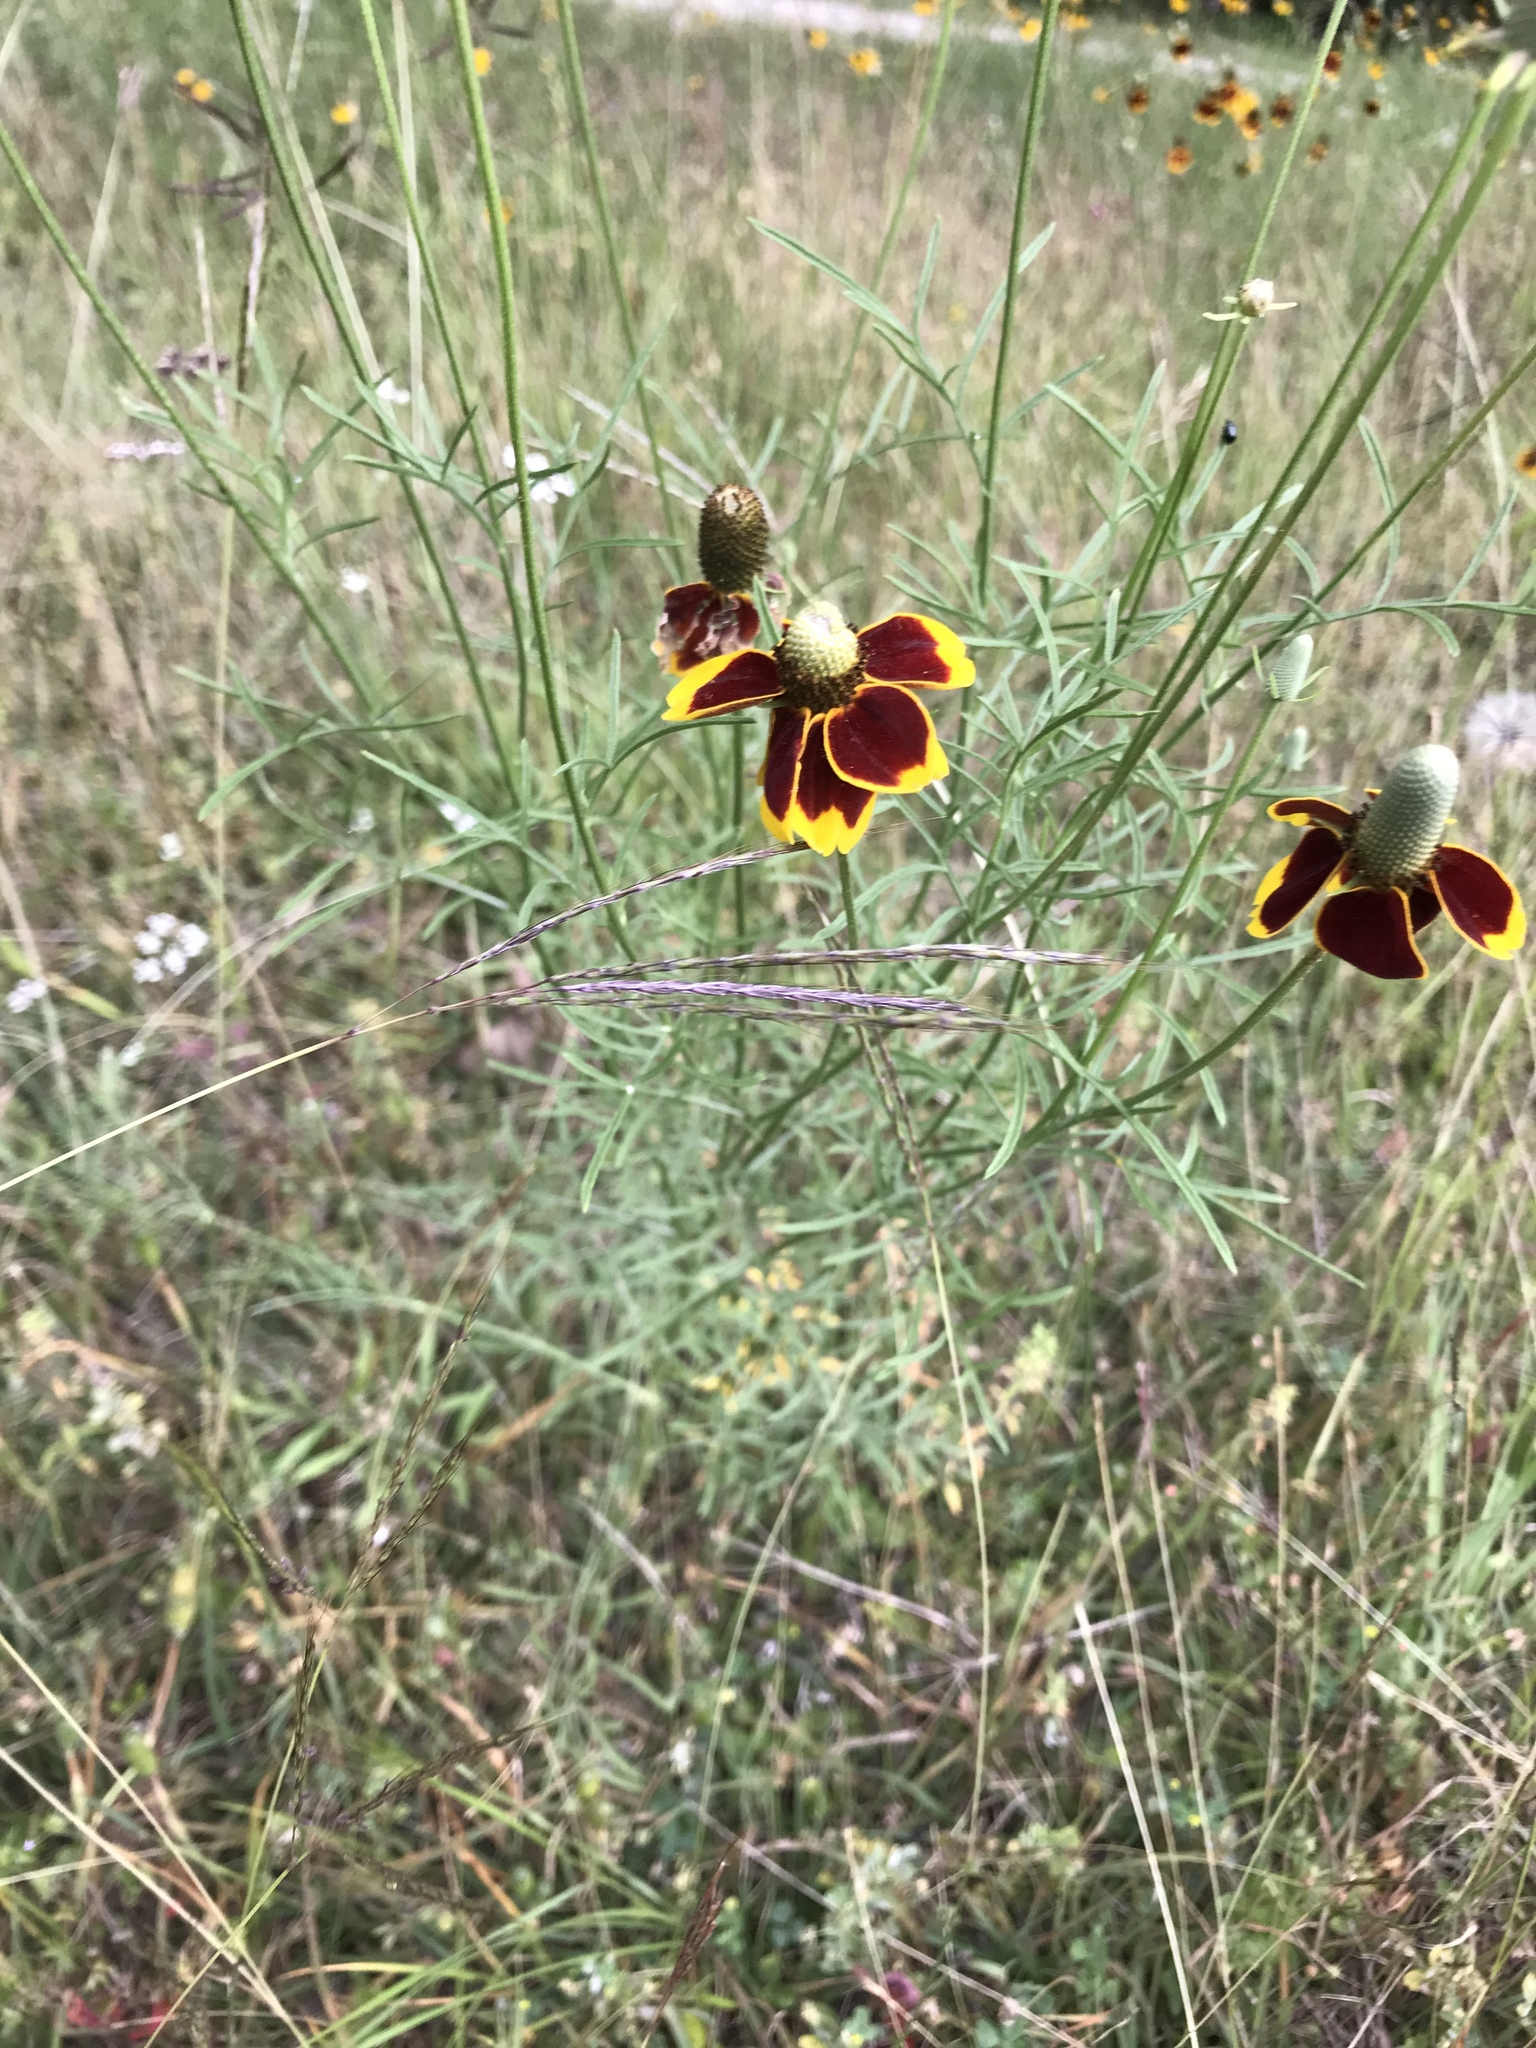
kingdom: Plantae
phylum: Tracheophyta
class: Magnoliopsida
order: Asterales
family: Asteraceae
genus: Ratibida
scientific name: Ratibida columnifera
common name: Prairie coneflower
